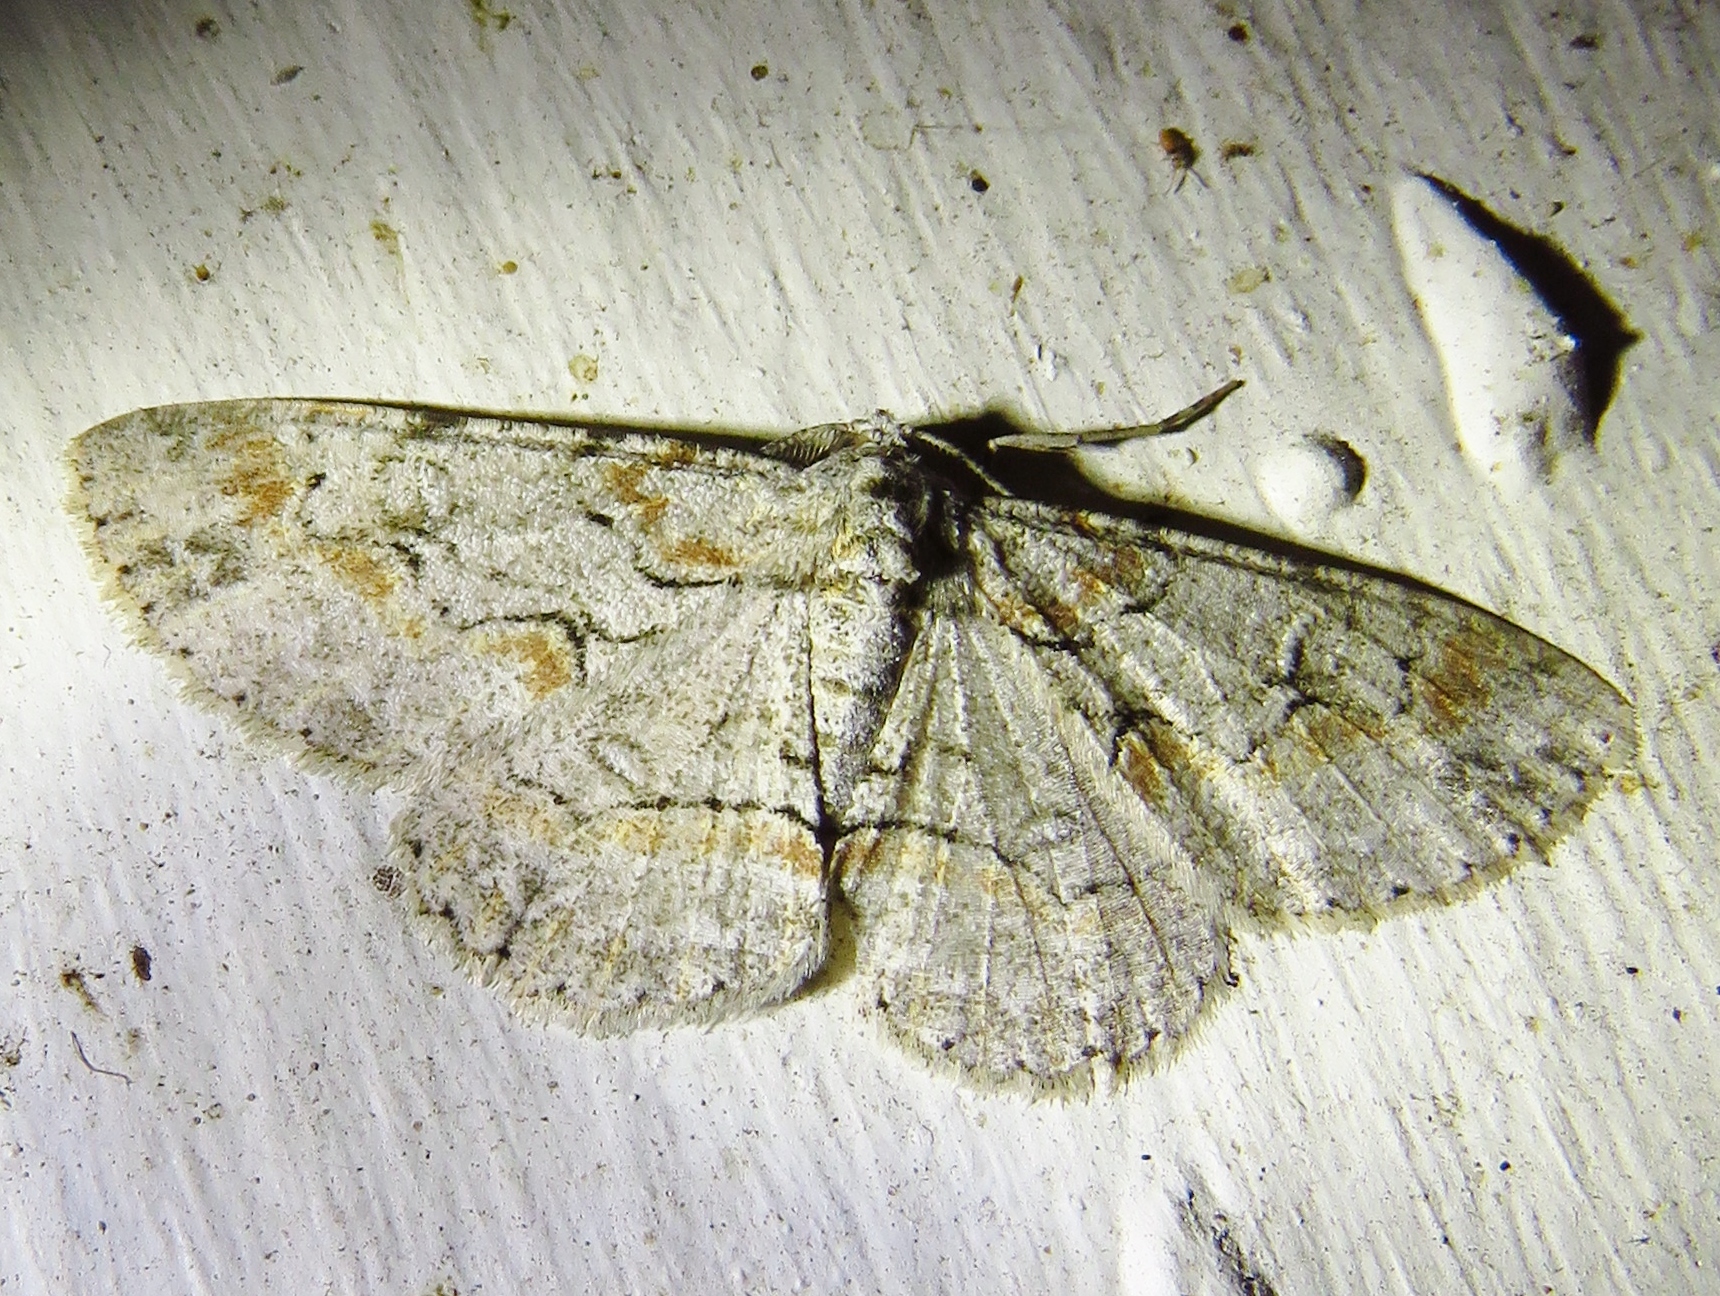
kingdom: Animalia
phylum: Arthropoda
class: Insecta
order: Lepidoptera
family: Geometridae
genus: Iridopsis
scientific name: Iridopsis defectaria
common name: Brown-shaded gray
